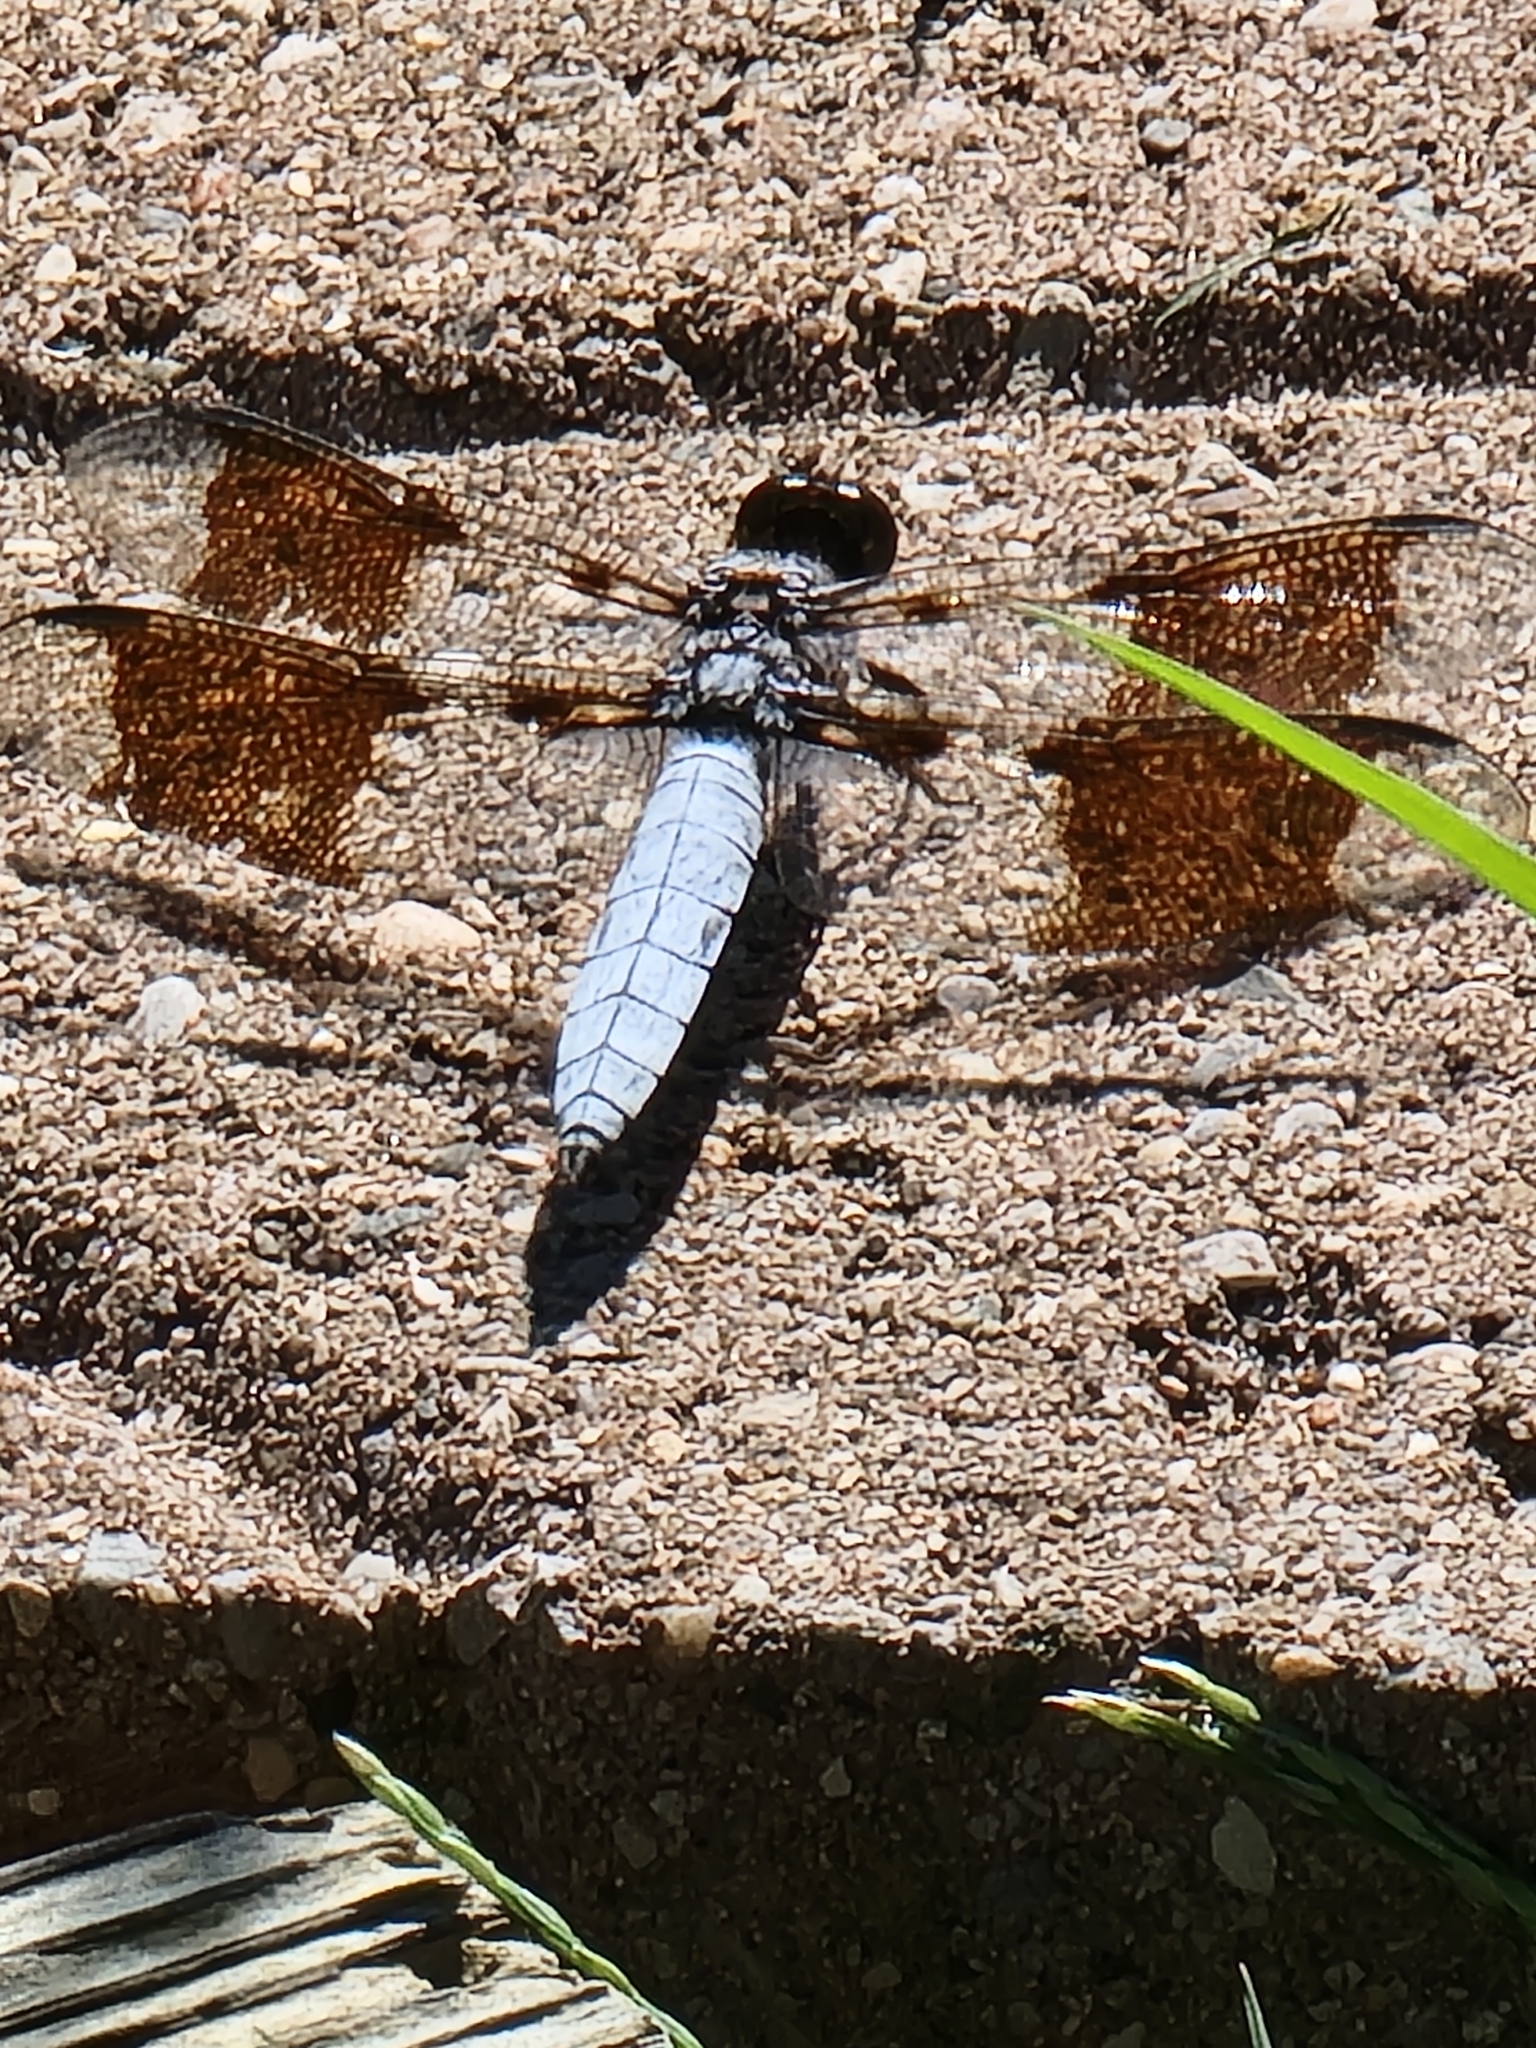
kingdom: Animalia
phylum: Arthropoda
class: Insecta
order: Odonata
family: Libellulidae
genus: Plathemis
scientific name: Plathemis lydia
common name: Common whitetail
